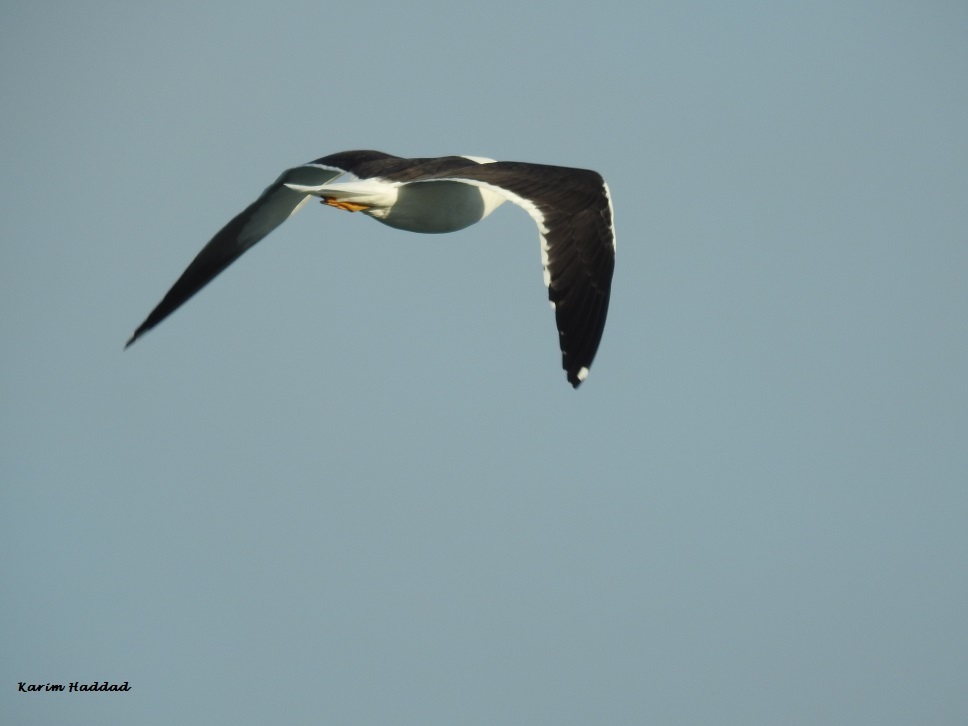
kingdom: Animalia
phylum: Chordata
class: Aves
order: Charadriiformes
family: Laridae
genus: Larus
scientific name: Larus fuscus
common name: Lesser black-backed gull
